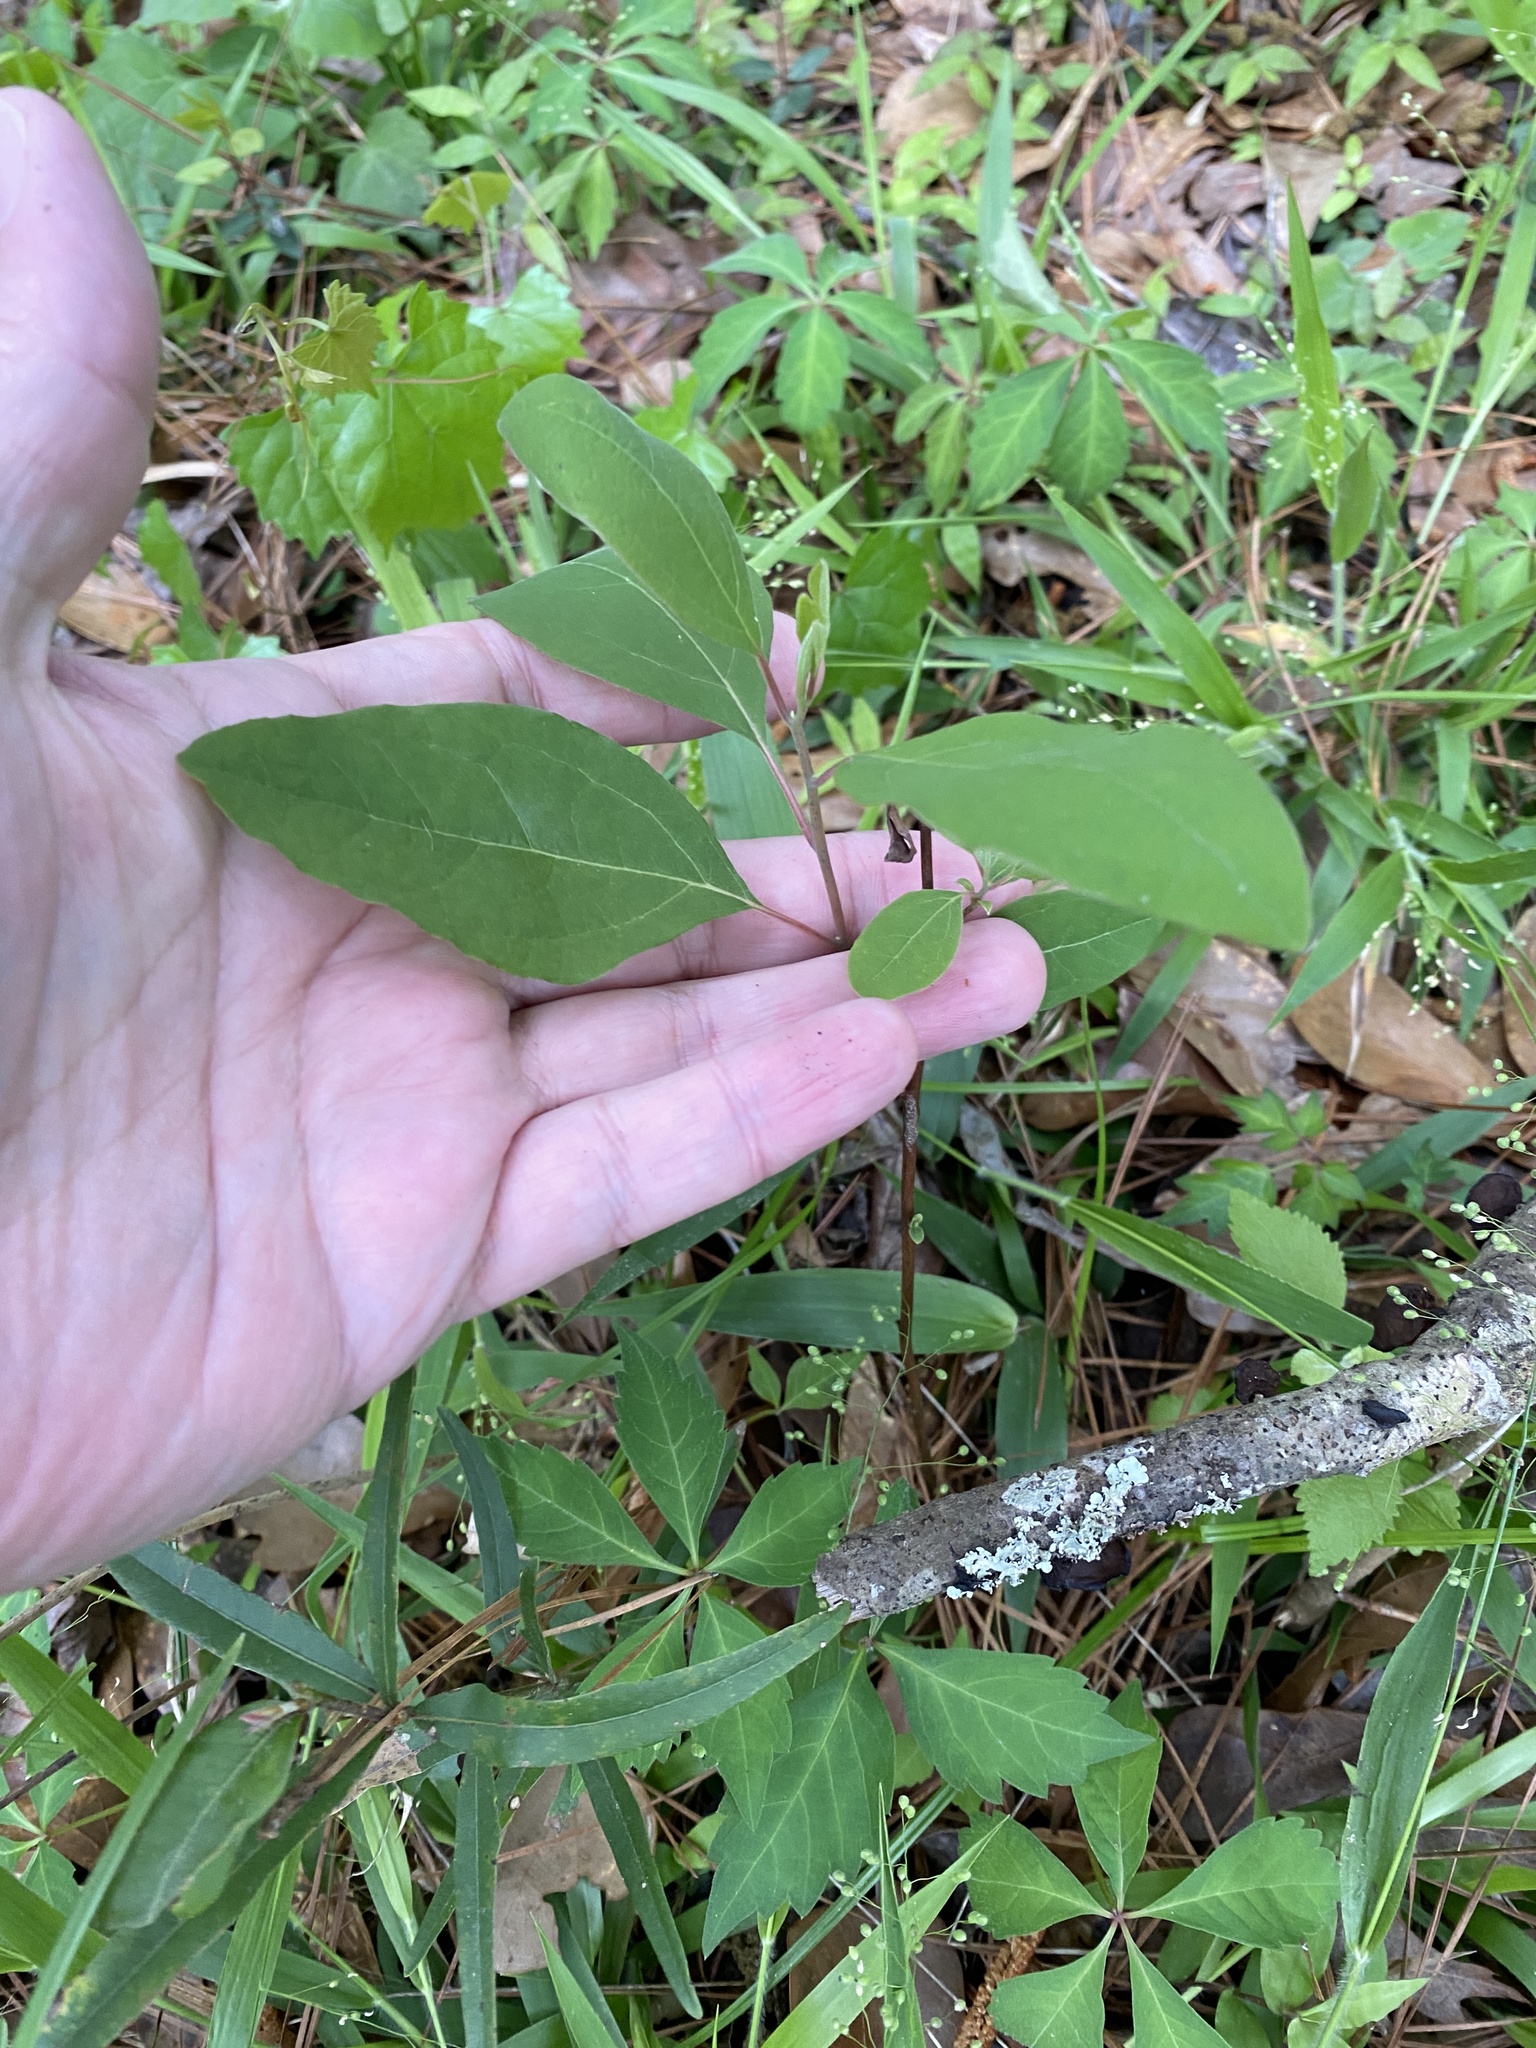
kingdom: Plantae
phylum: Tracheophyta
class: Magnoliopsida
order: Laurales
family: Lauraceae
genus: Sassafras
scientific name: Sassafras albidum
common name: Sassafras
